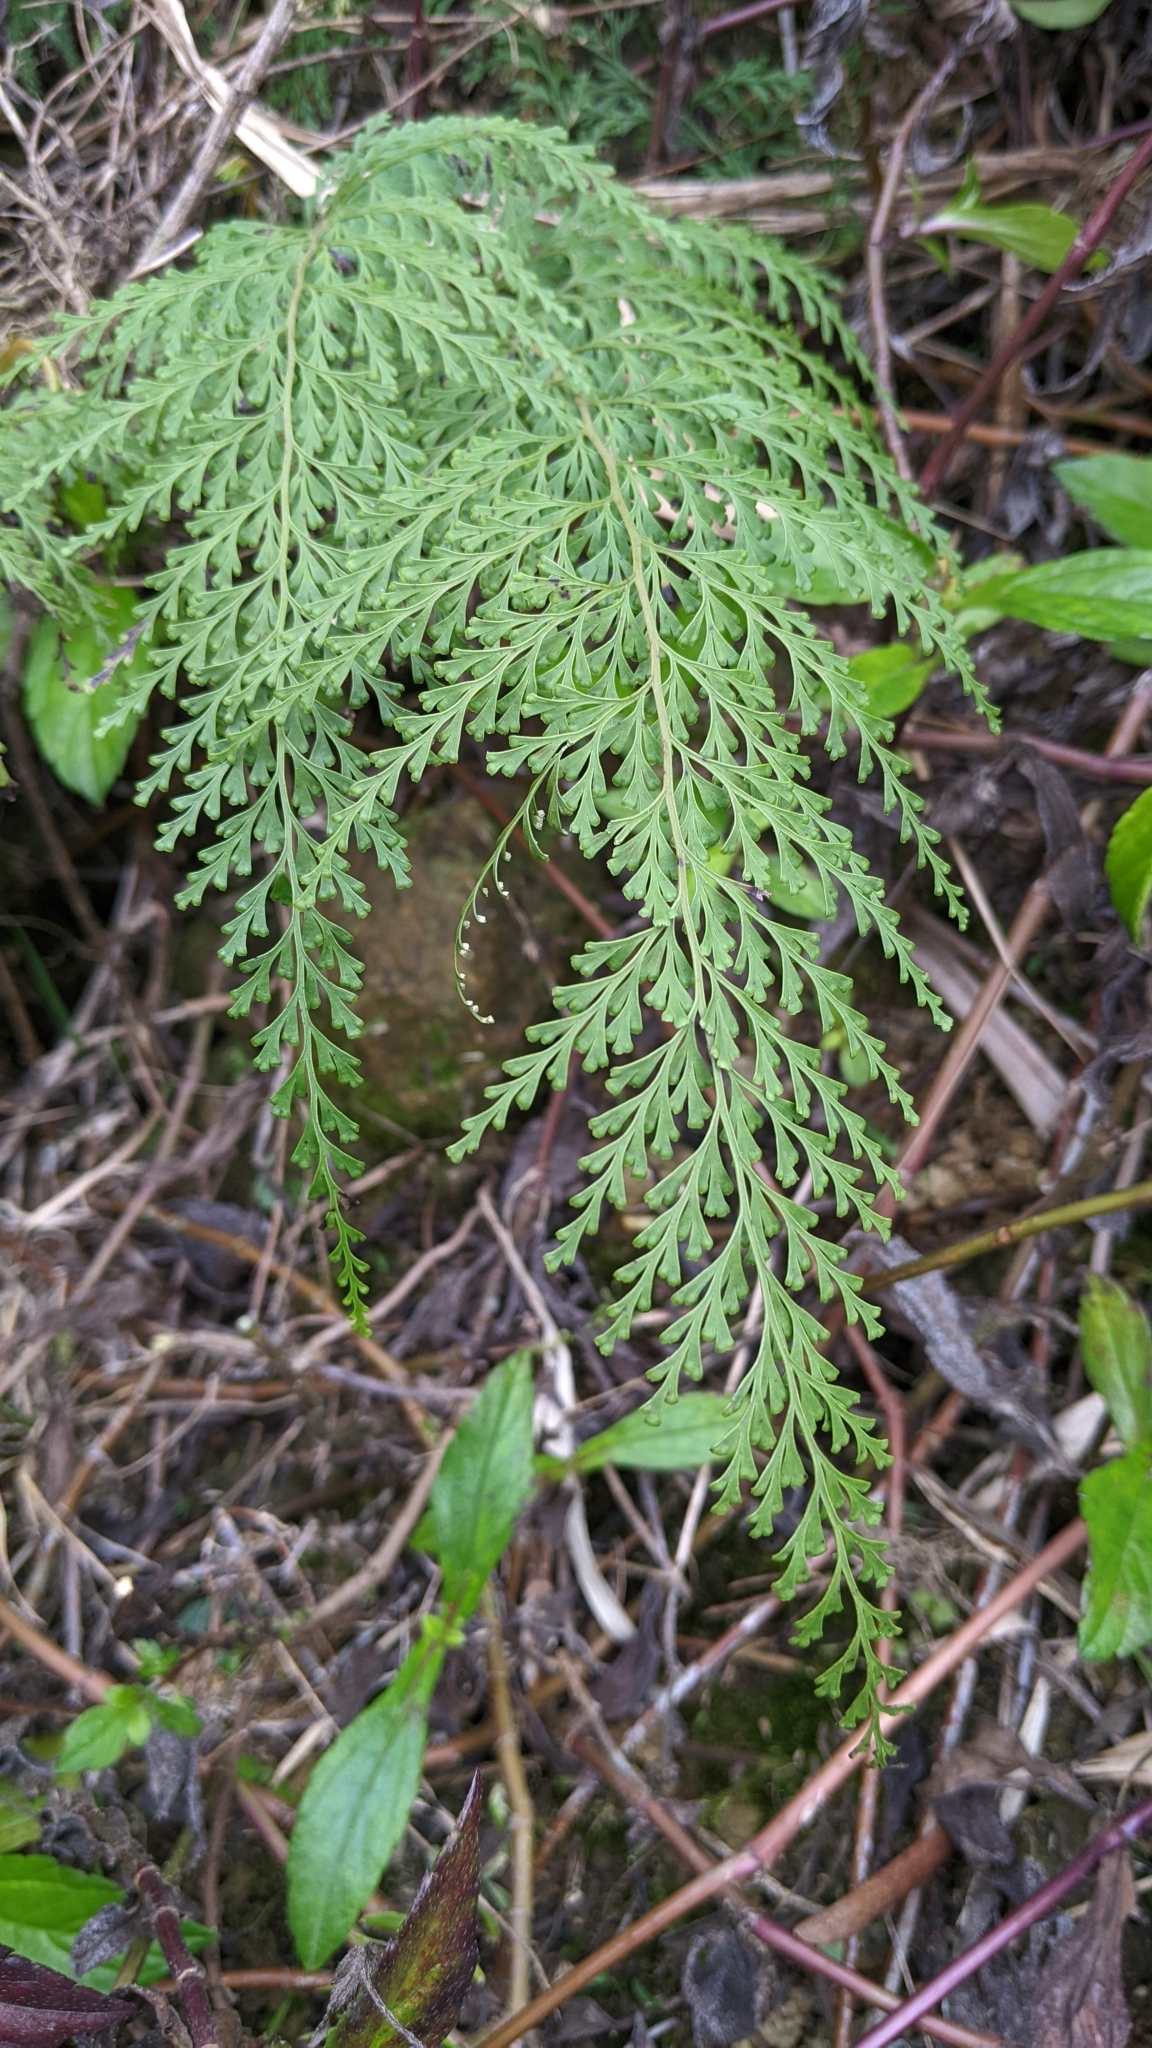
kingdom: Plantae
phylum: Tracheophyta
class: Polypodiopsida
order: Polypodiales
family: Lindsaeaceae
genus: Odontosoria
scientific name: Odontosoria chinensis
